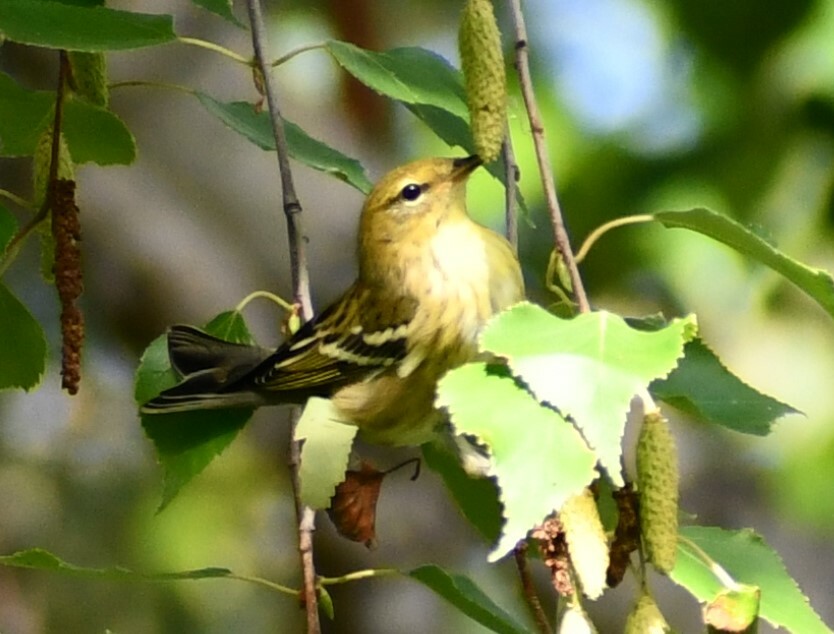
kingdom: Animalia
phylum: Chordata
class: Aves
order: Passeriformes
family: Parulidae
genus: Setophaga
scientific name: Setophaga striata
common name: Blackpoll warbler
